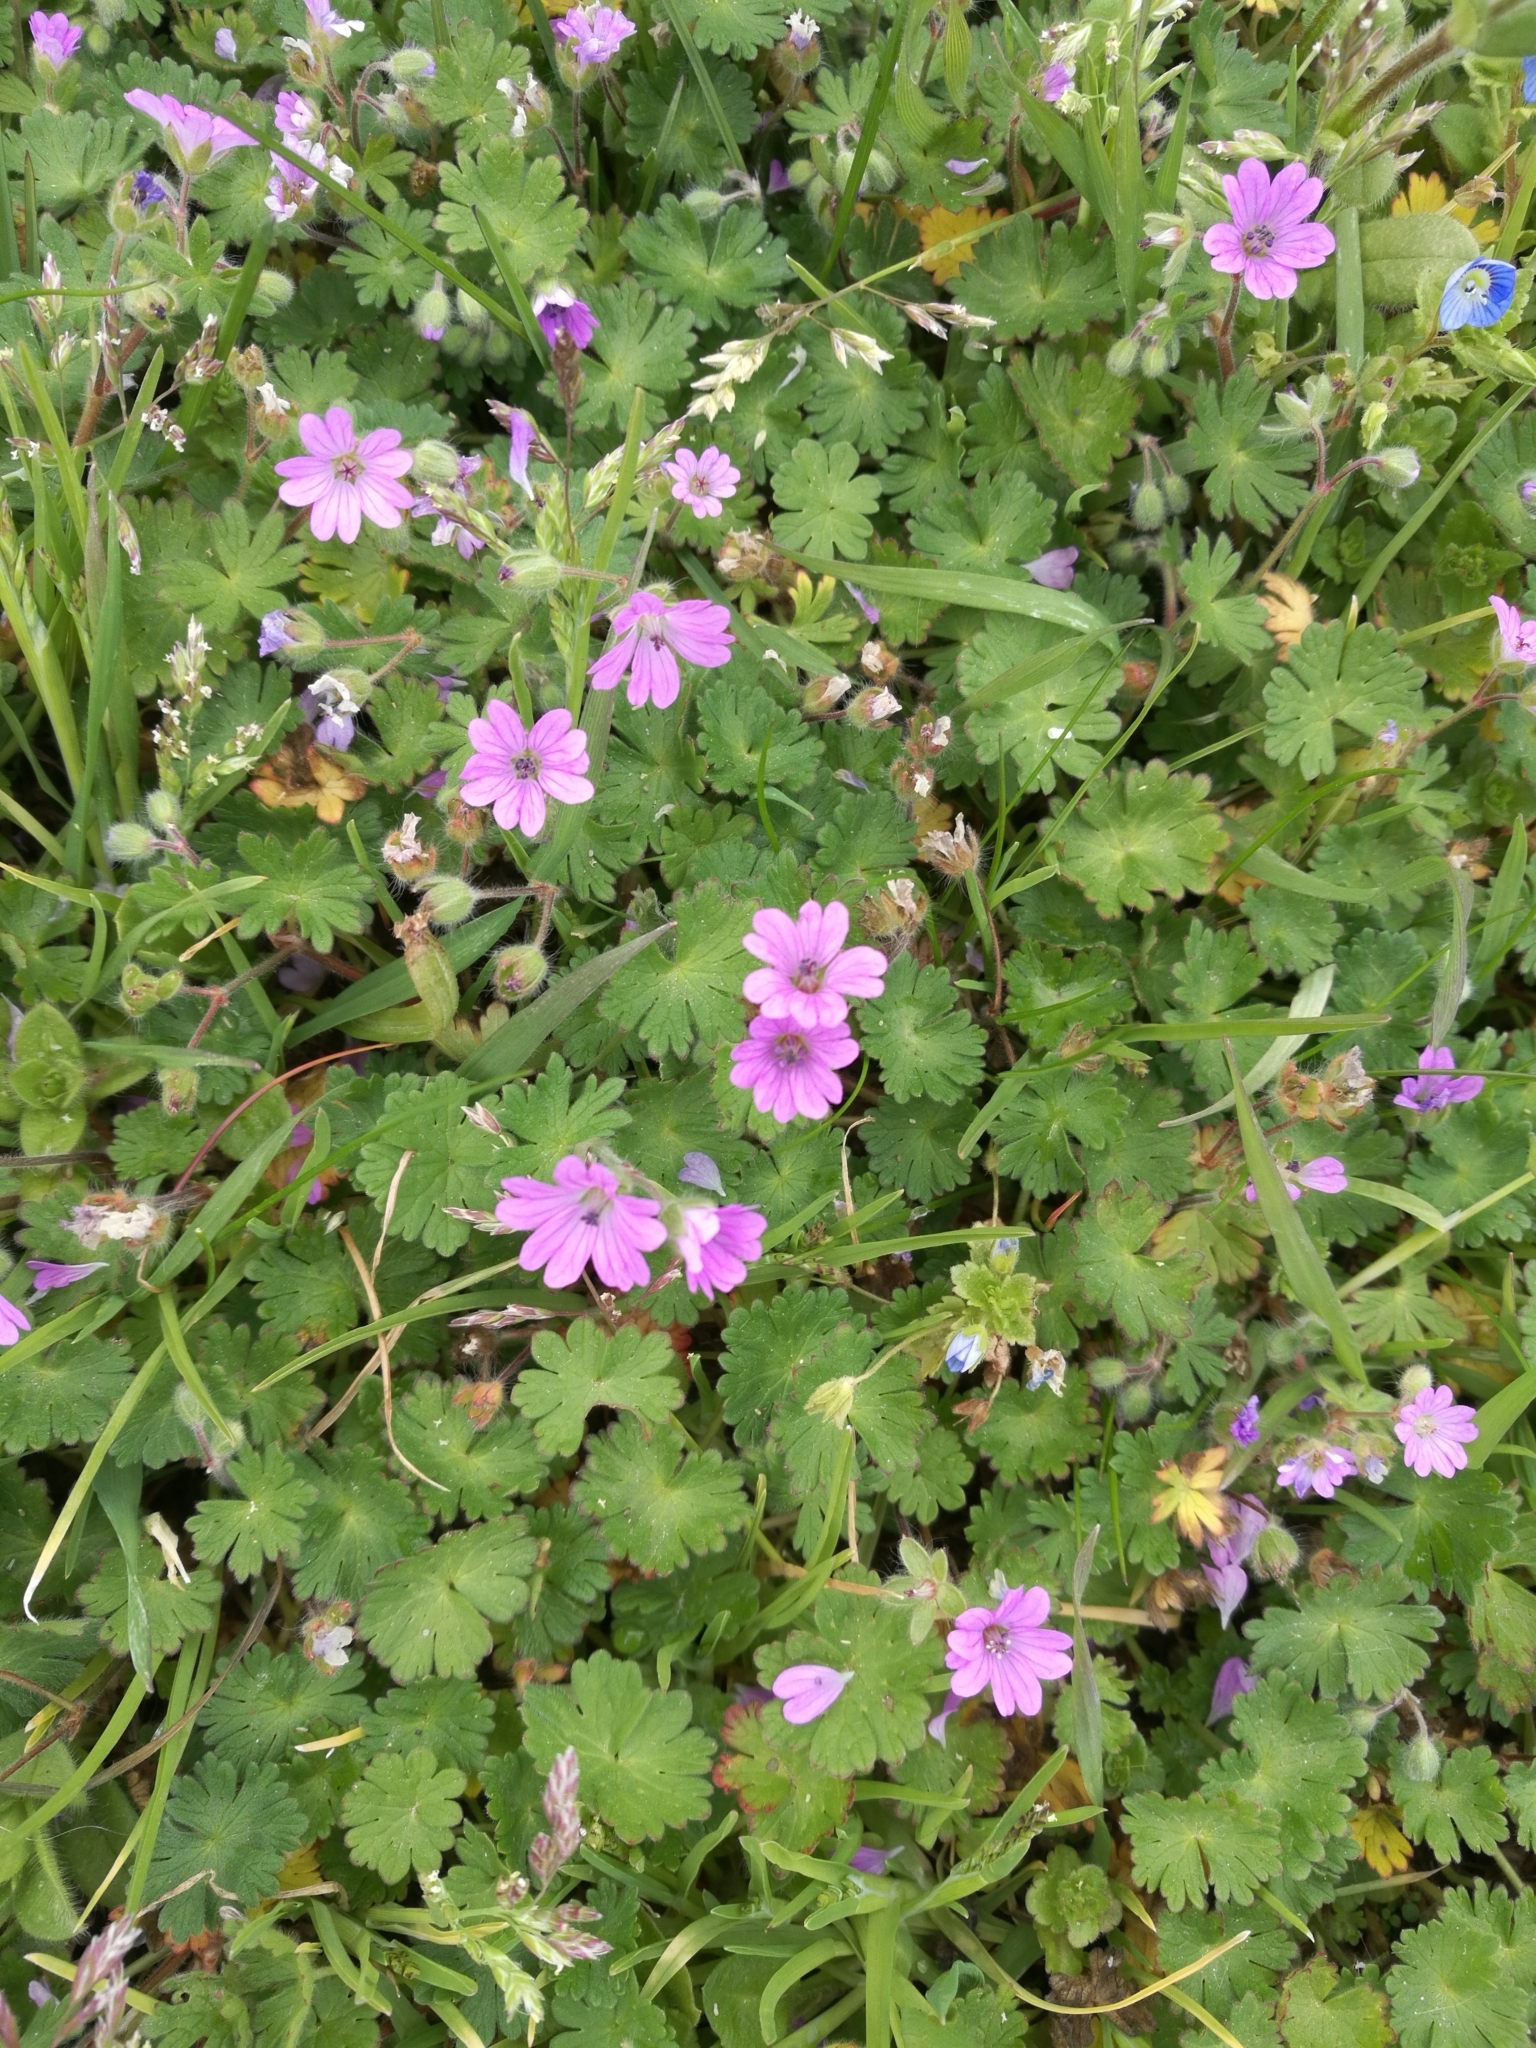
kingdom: Plantae
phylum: Tracheophyta
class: Magnoliopsida
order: Geraniales
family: Geraniaceae
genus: Geranium
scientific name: Geranium molle
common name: Dove's-foot crane's-bill
